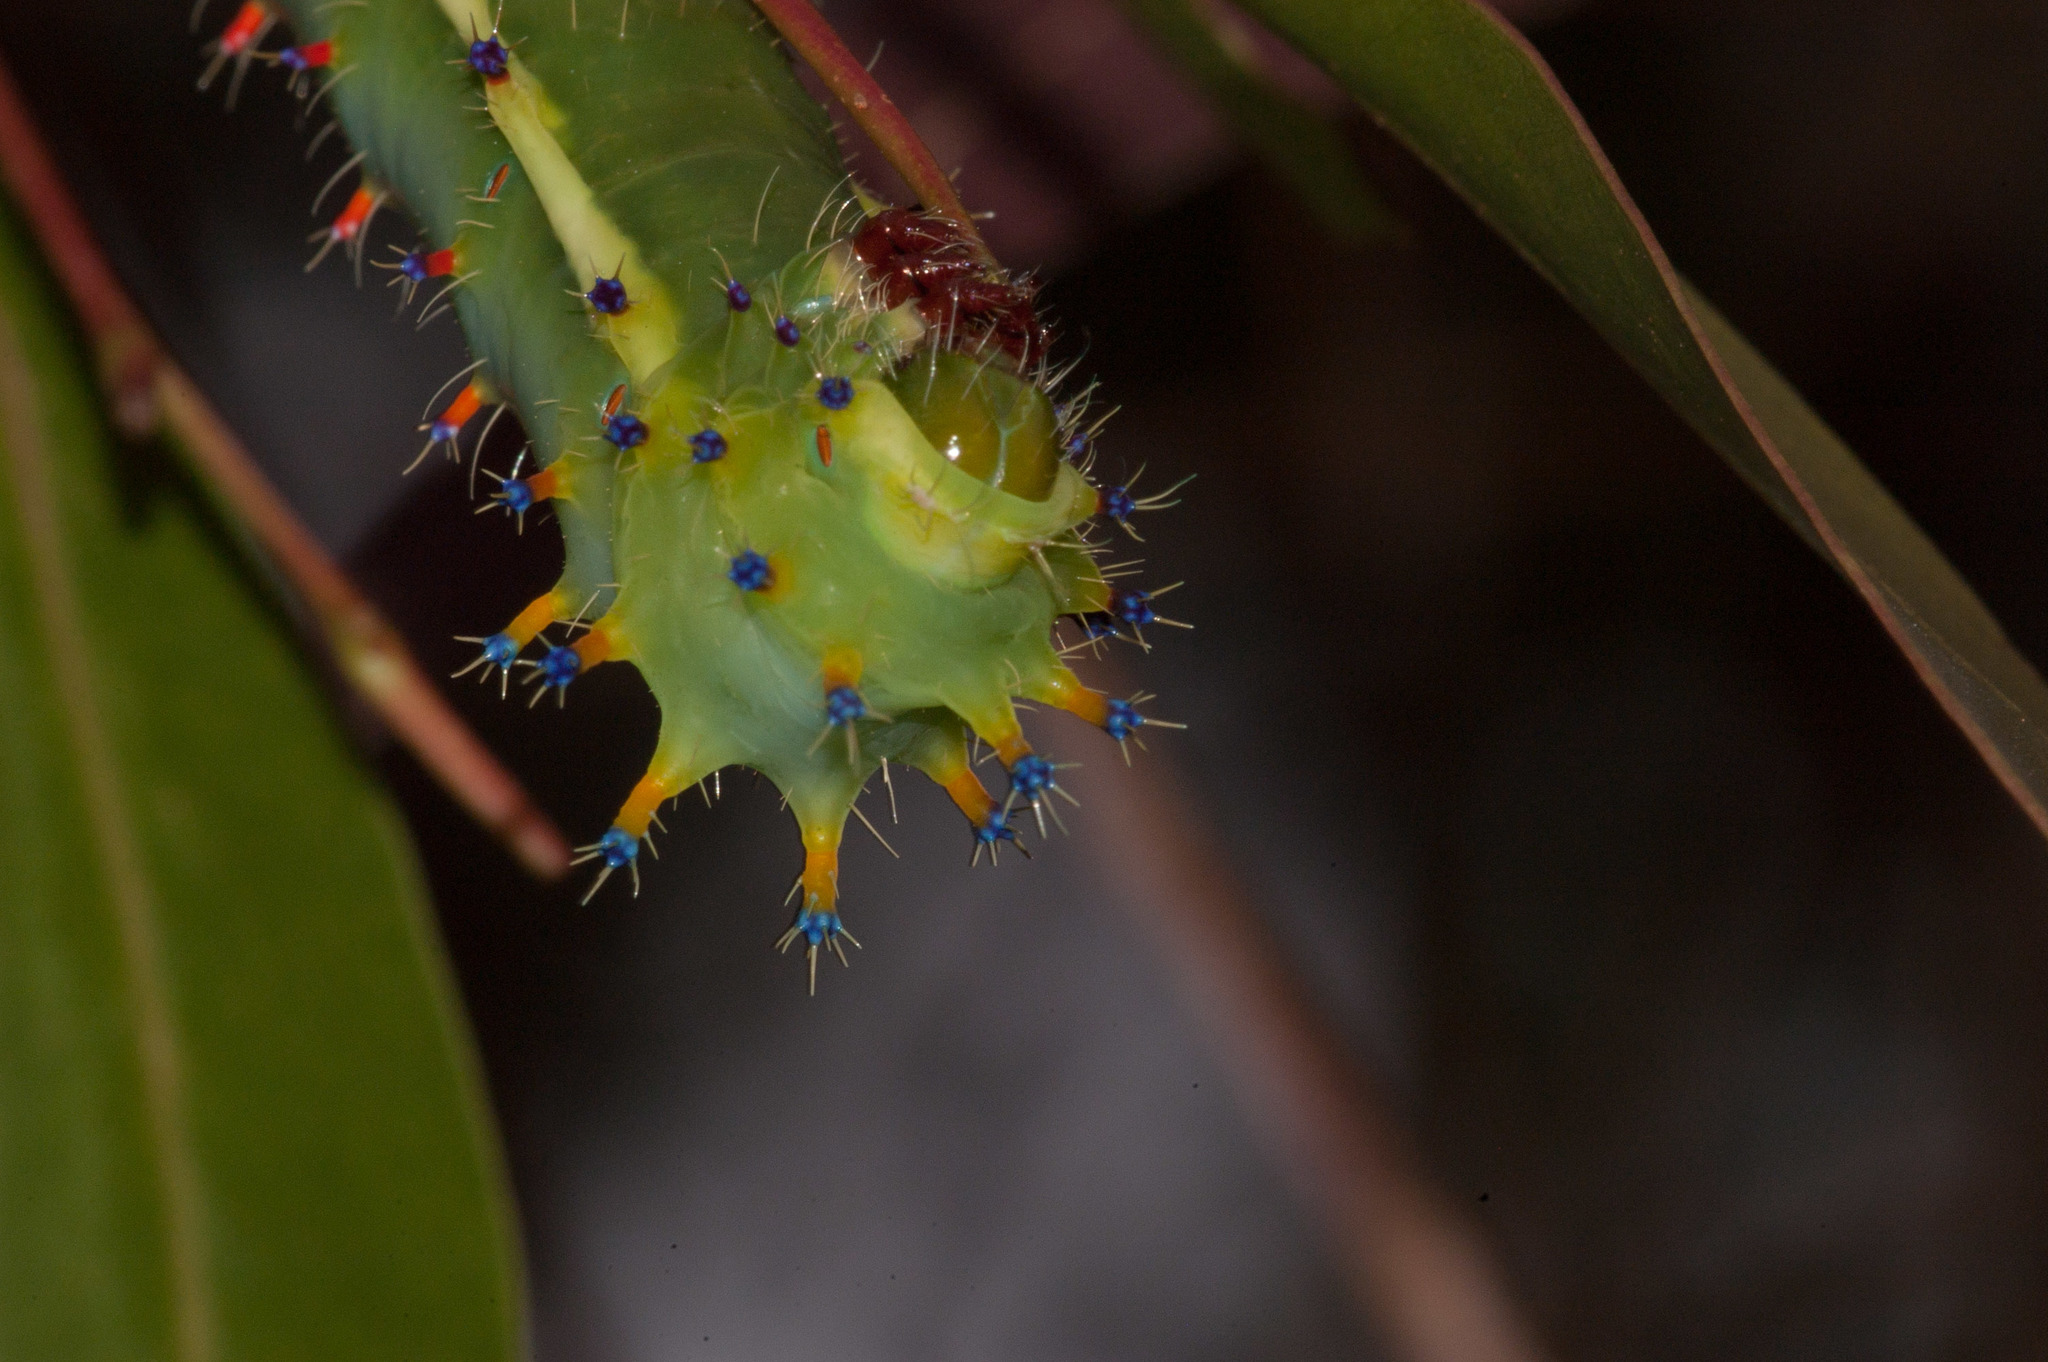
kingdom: Animalia
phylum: Arthropoda
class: Insecta
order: Lepidoptera
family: Saturniidae
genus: Opodiphthera
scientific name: Opodiphthera
